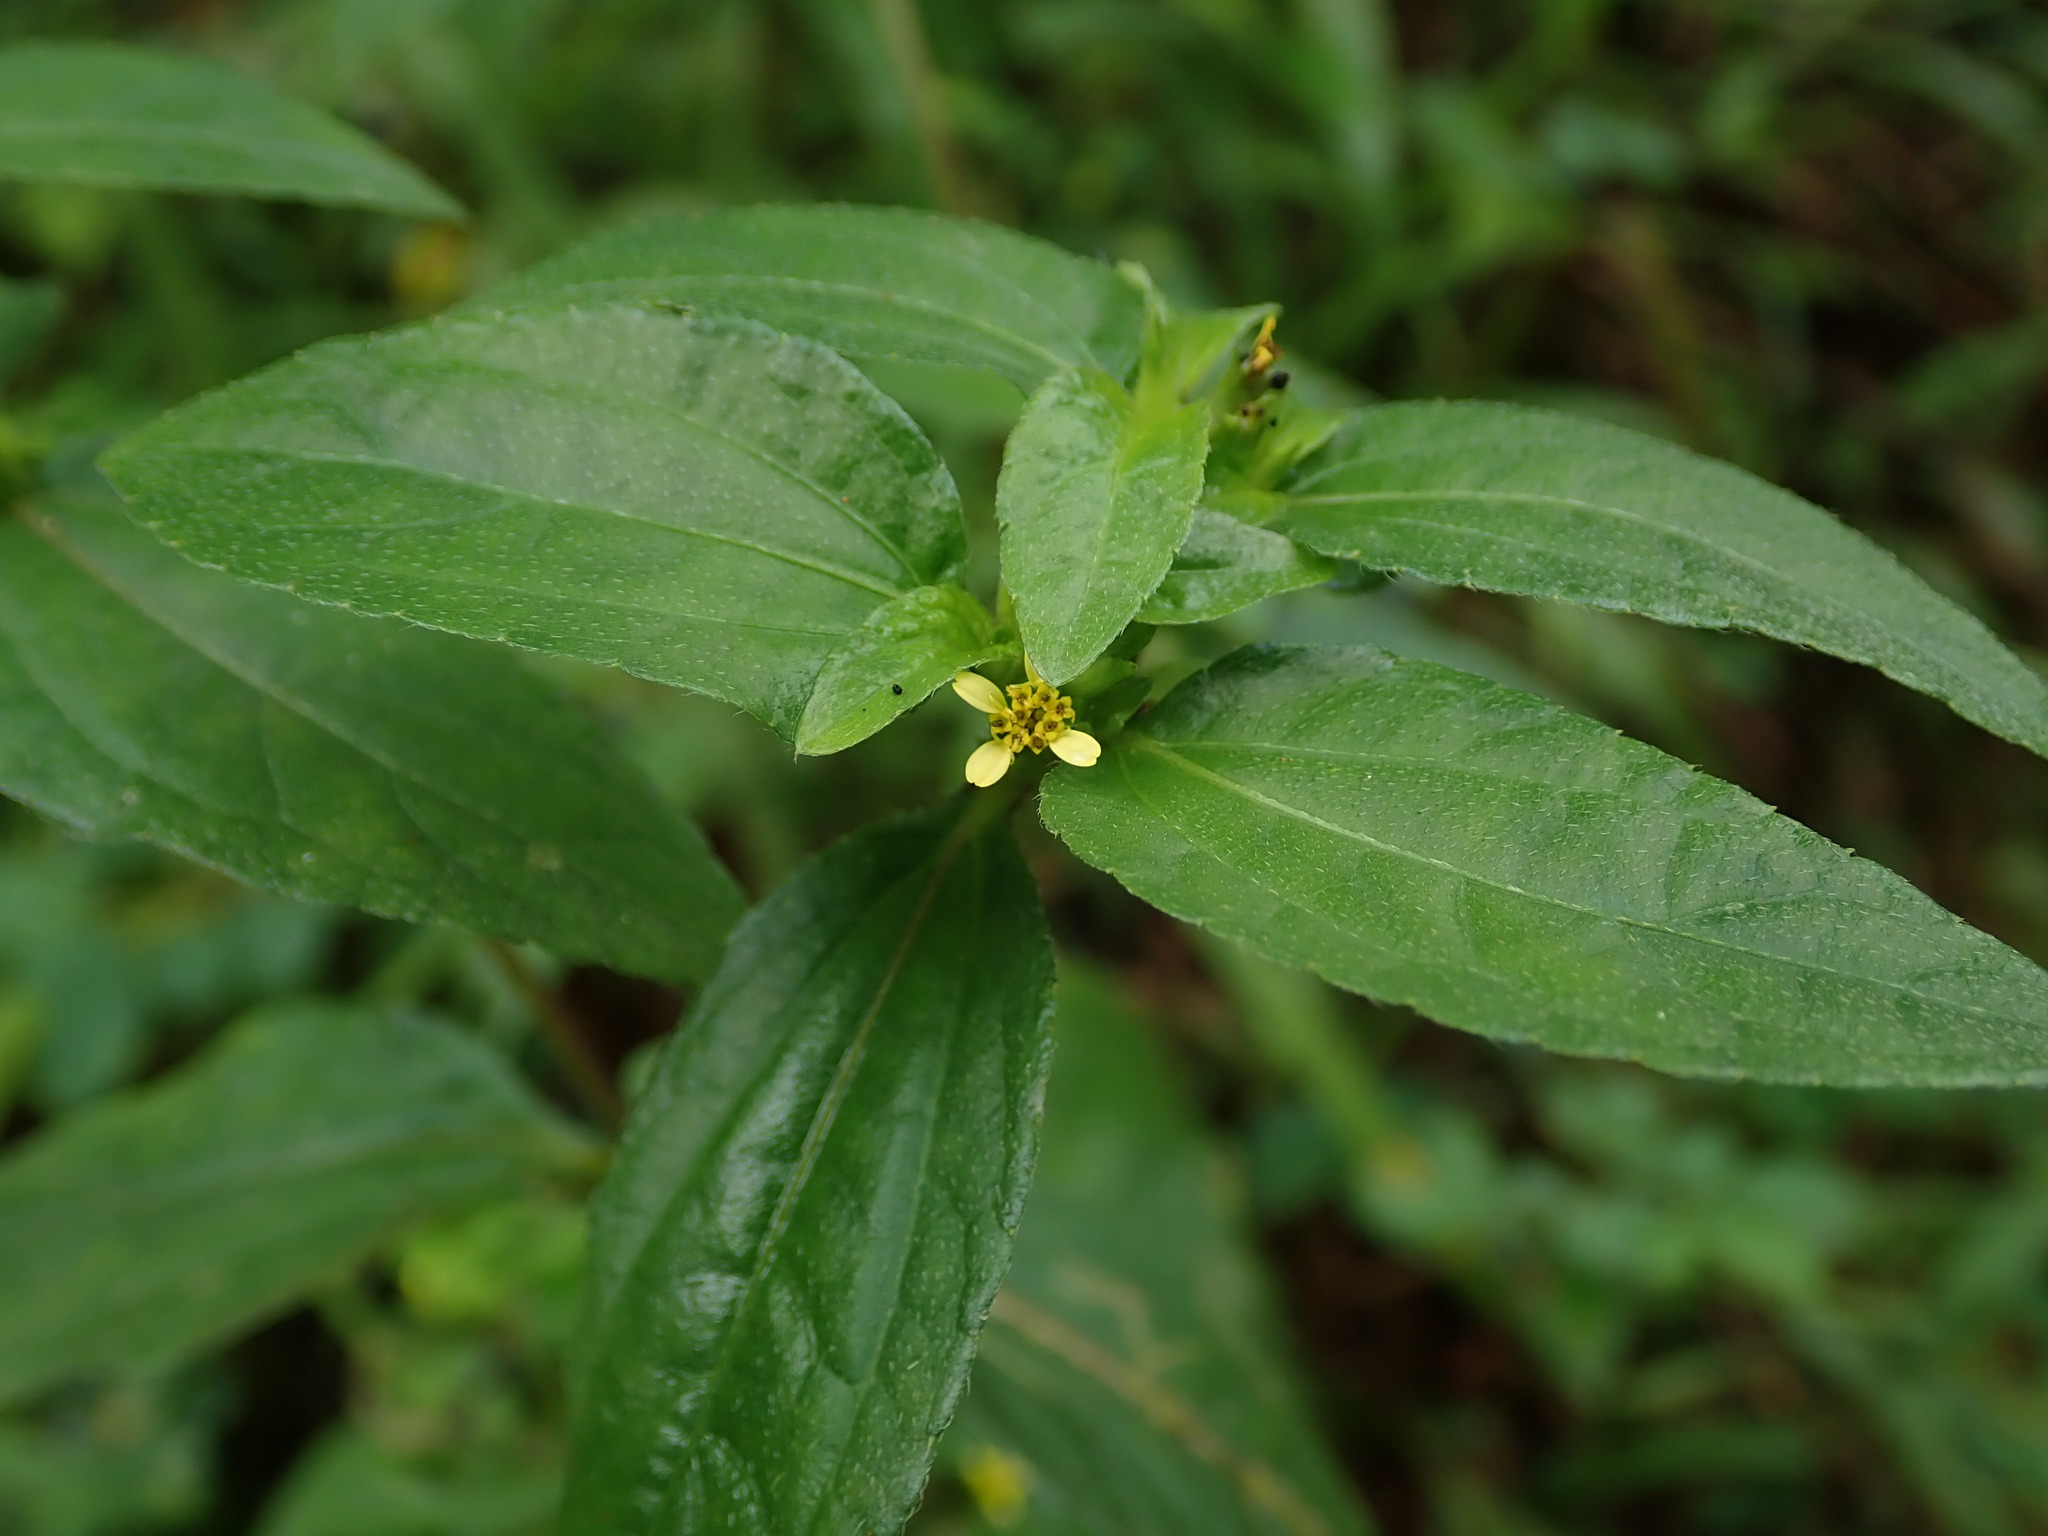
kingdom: Plantae
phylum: Tracheophyta
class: Magnoliopsida
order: Asterales
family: Asteraceae
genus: Synedrella
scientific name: Synedrella nodiflora
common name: Nodeweed
